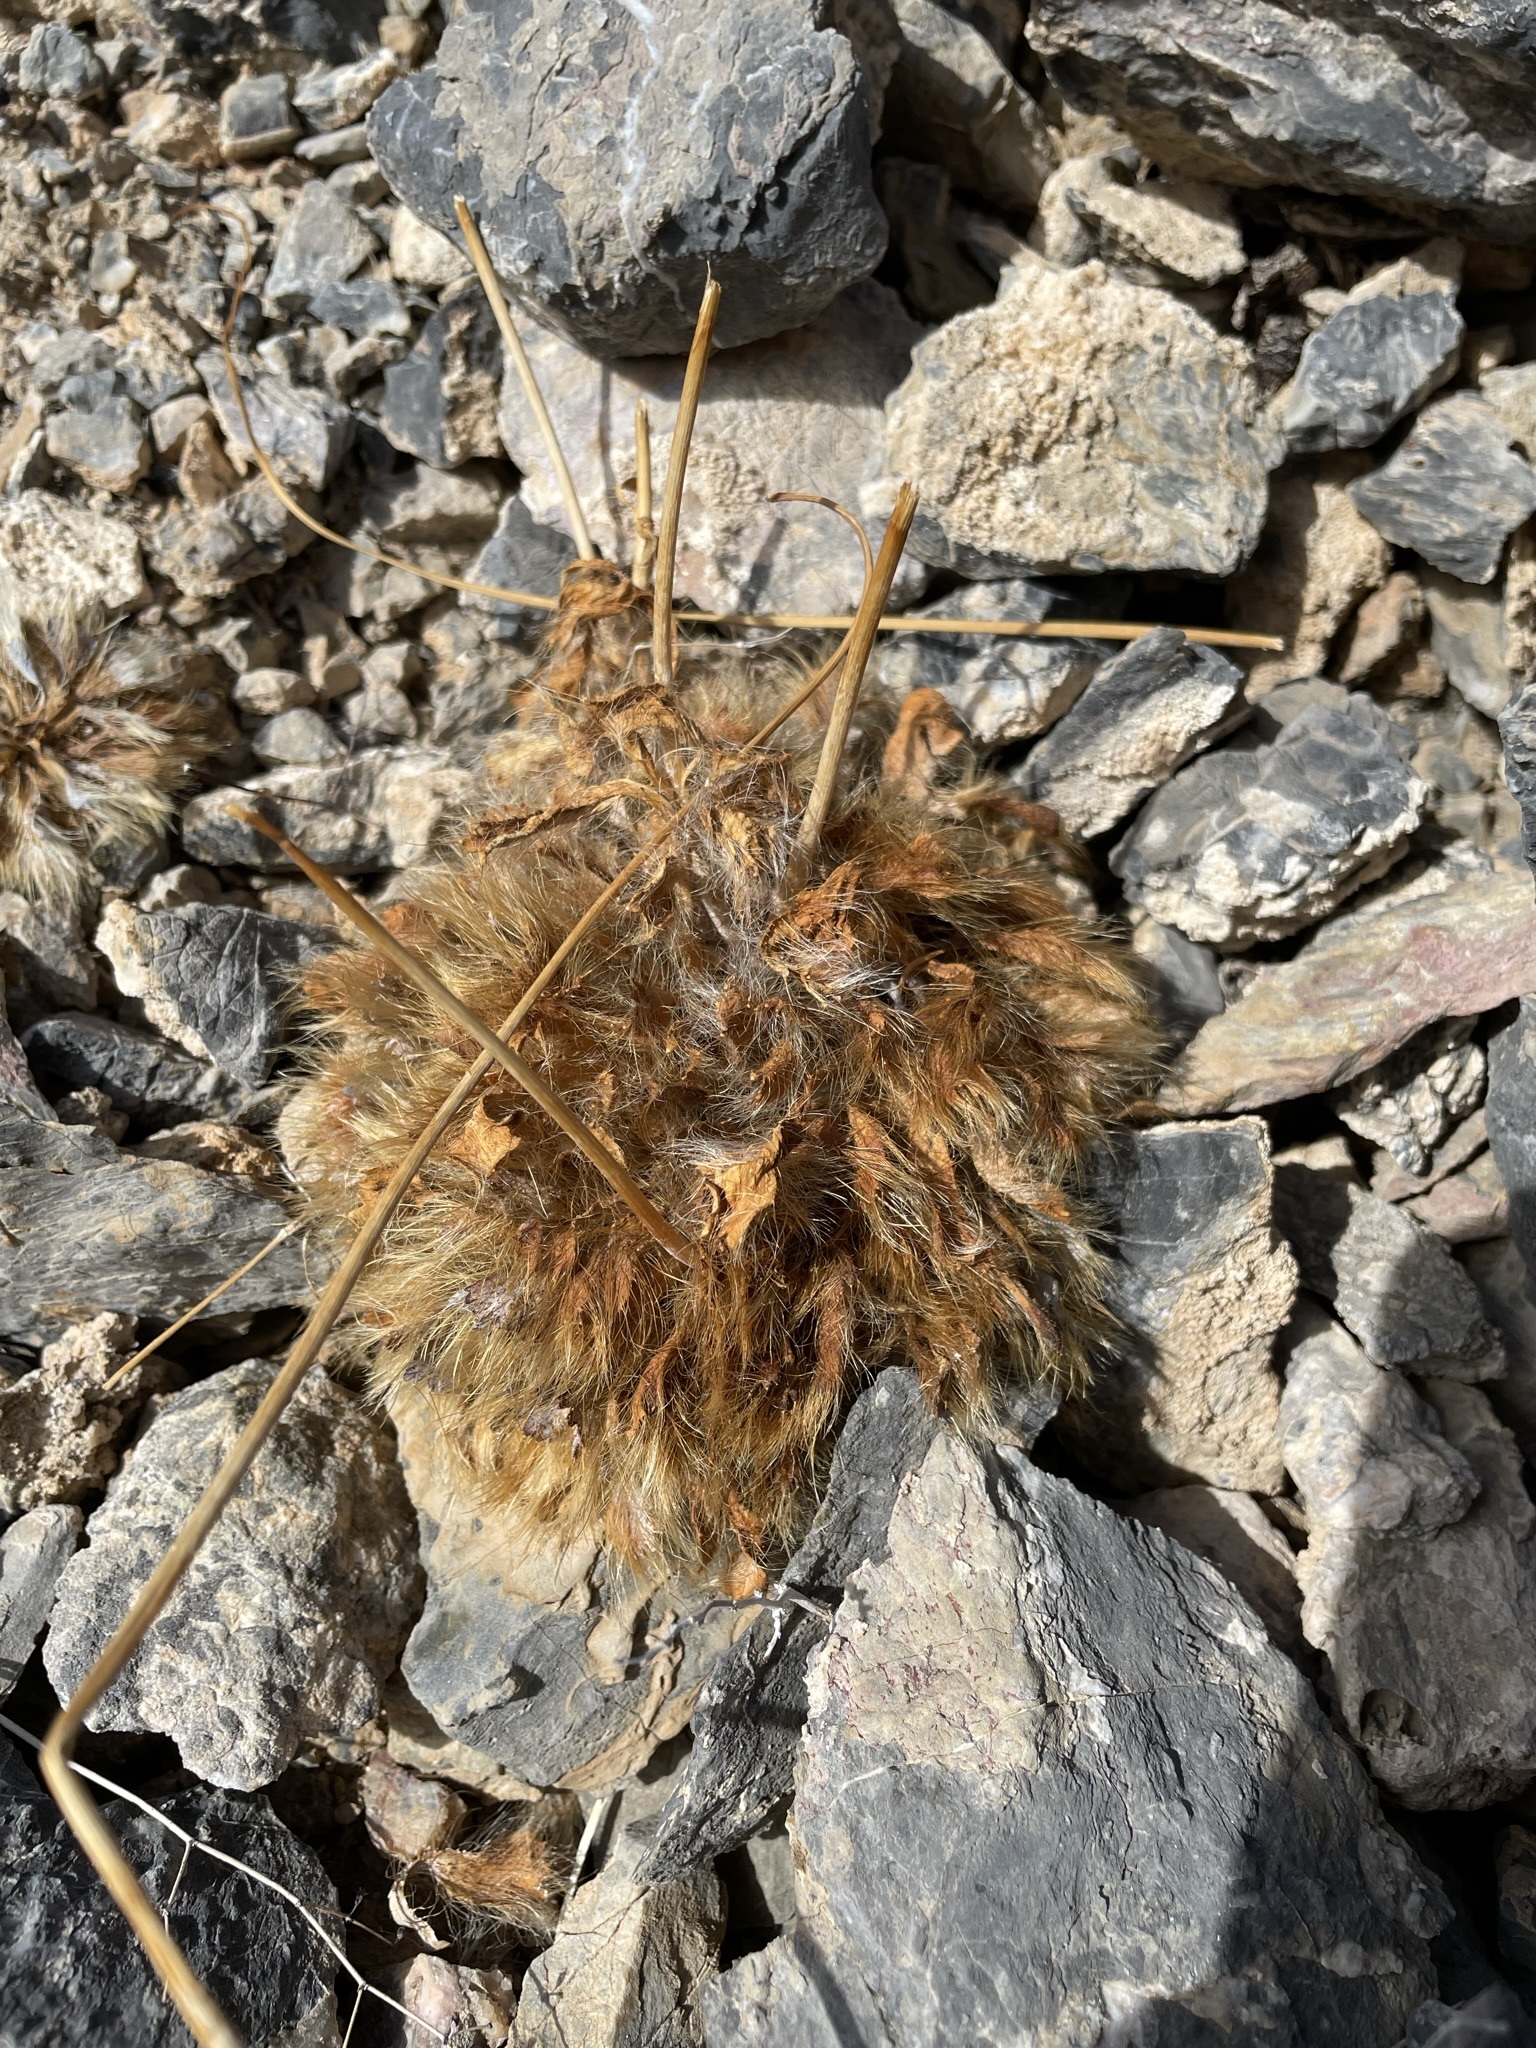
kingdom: Plantae
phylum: Tracheophyta
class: Magnoliopsida
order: Ranunculales
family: Papaveraceae
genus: Arctomecon
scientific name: Arctomecon merriamii
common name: White bear-poppy
